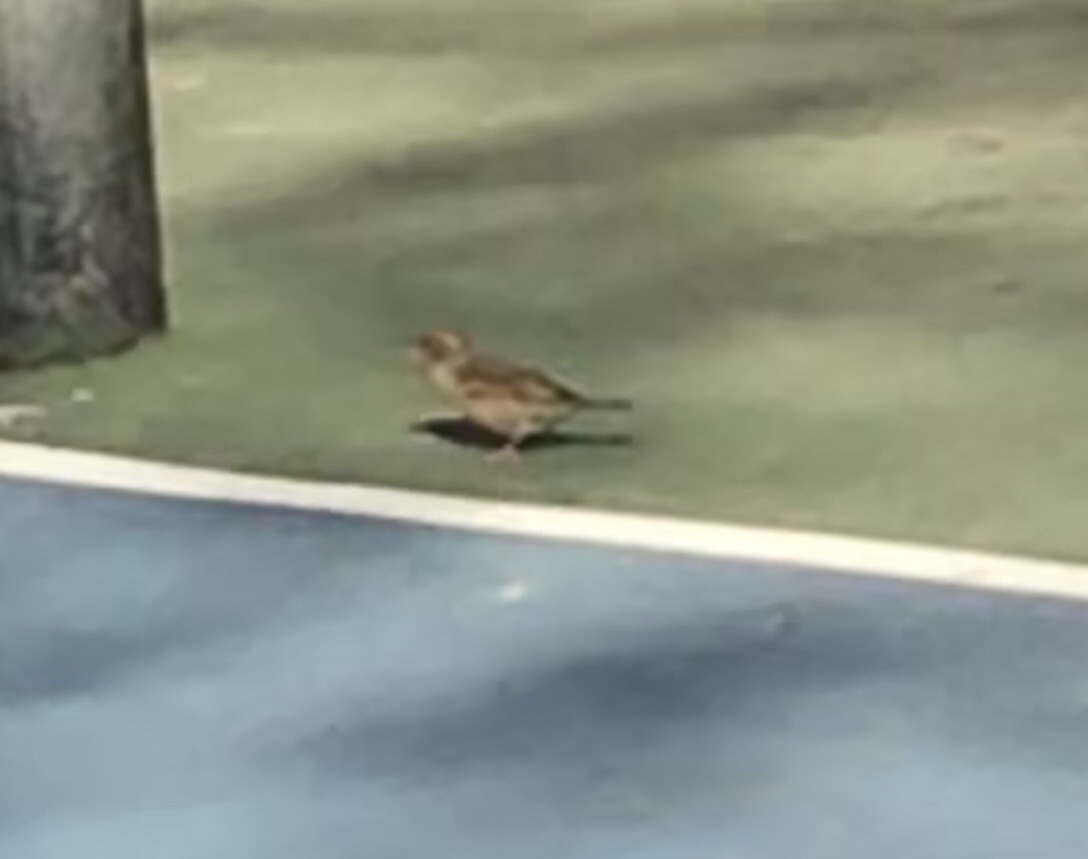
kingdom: Animalia
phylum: Chordata
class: Aves
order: Passeriformes
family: Passeridae
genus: Passer
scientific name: Passer domesticus
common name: House sparrow
